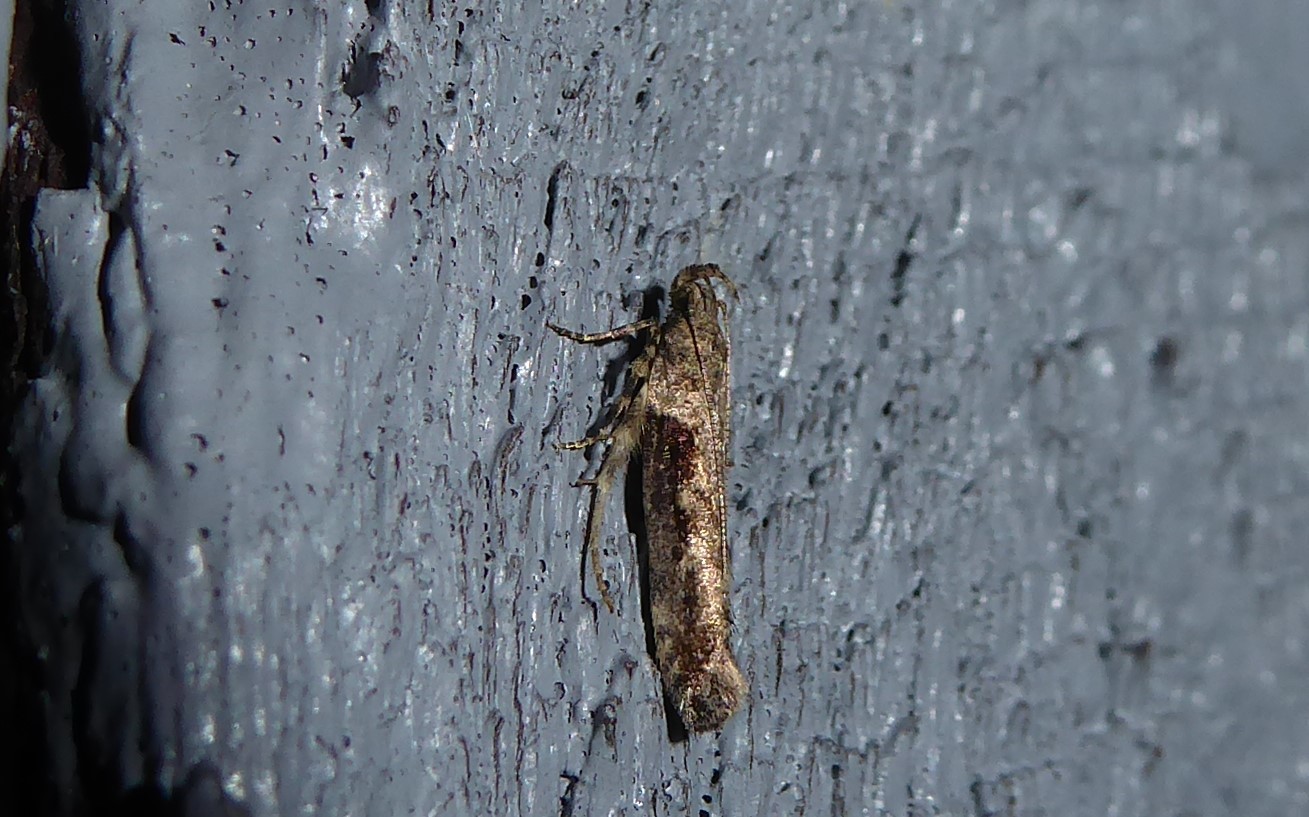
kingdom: Animalia
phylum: Arthropoda
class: Insecta
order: Lepidoptera
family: Gelechiidae
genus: Symmetrischema
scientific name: Symmetrischema tangolias
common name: Moth
